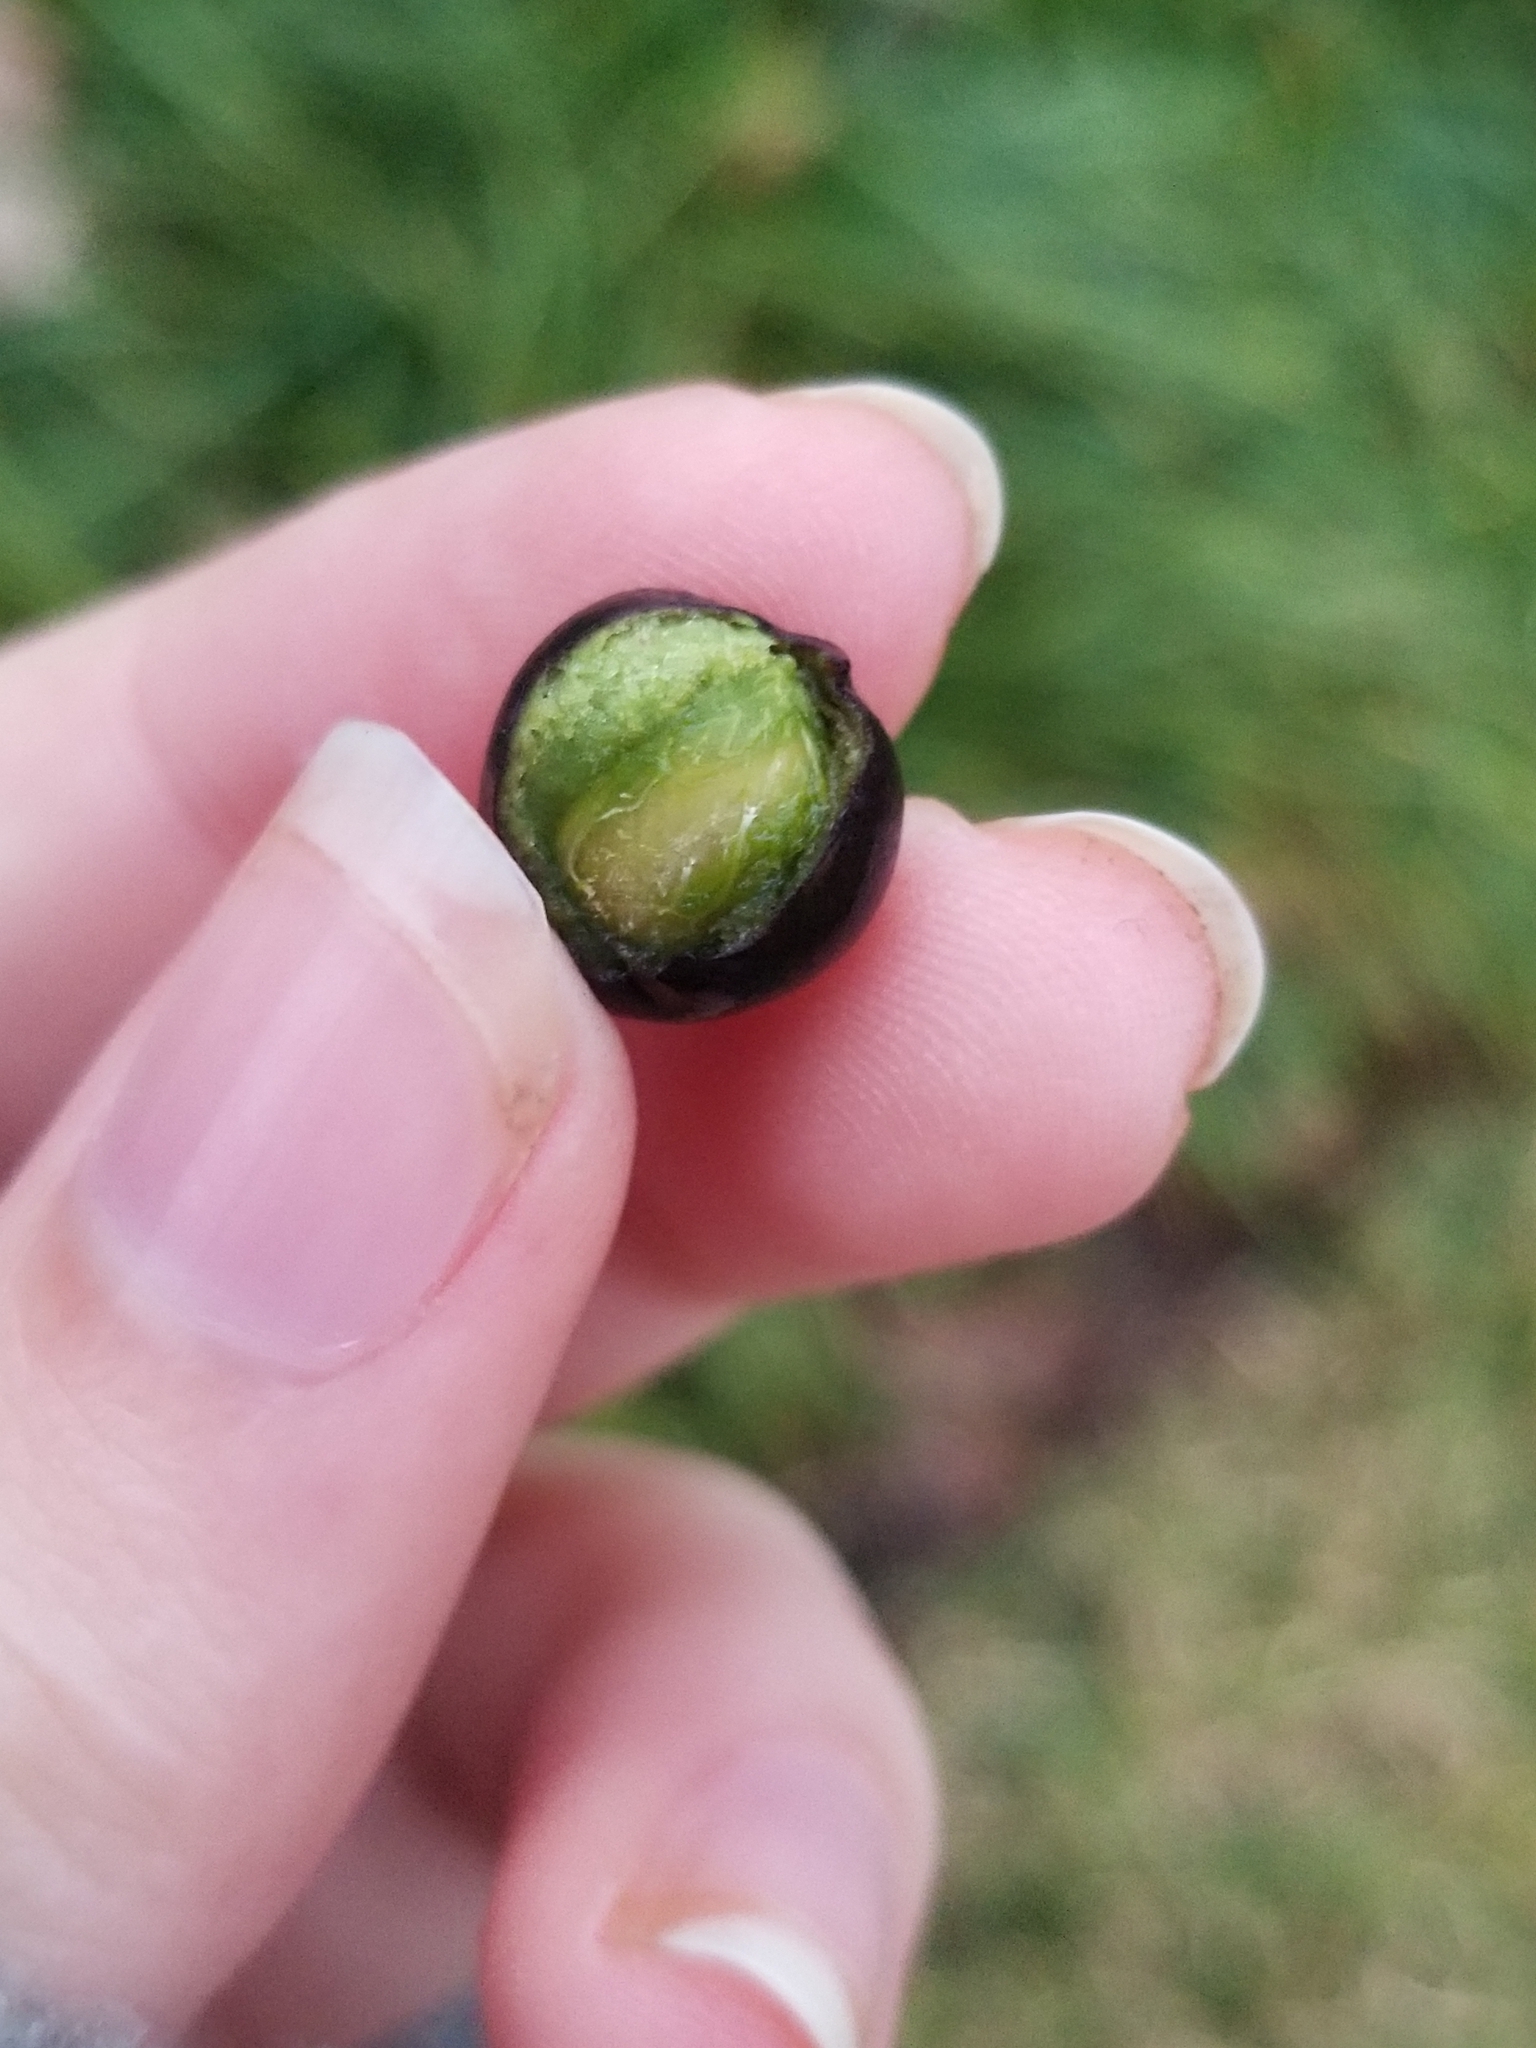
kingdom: Plantae
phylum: Tracheophyta
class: Magnoliopsida
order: Rosales
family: Rosaceae
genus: Prunus
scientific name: Prunus caroliniana
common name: Carolina laurel cherry
